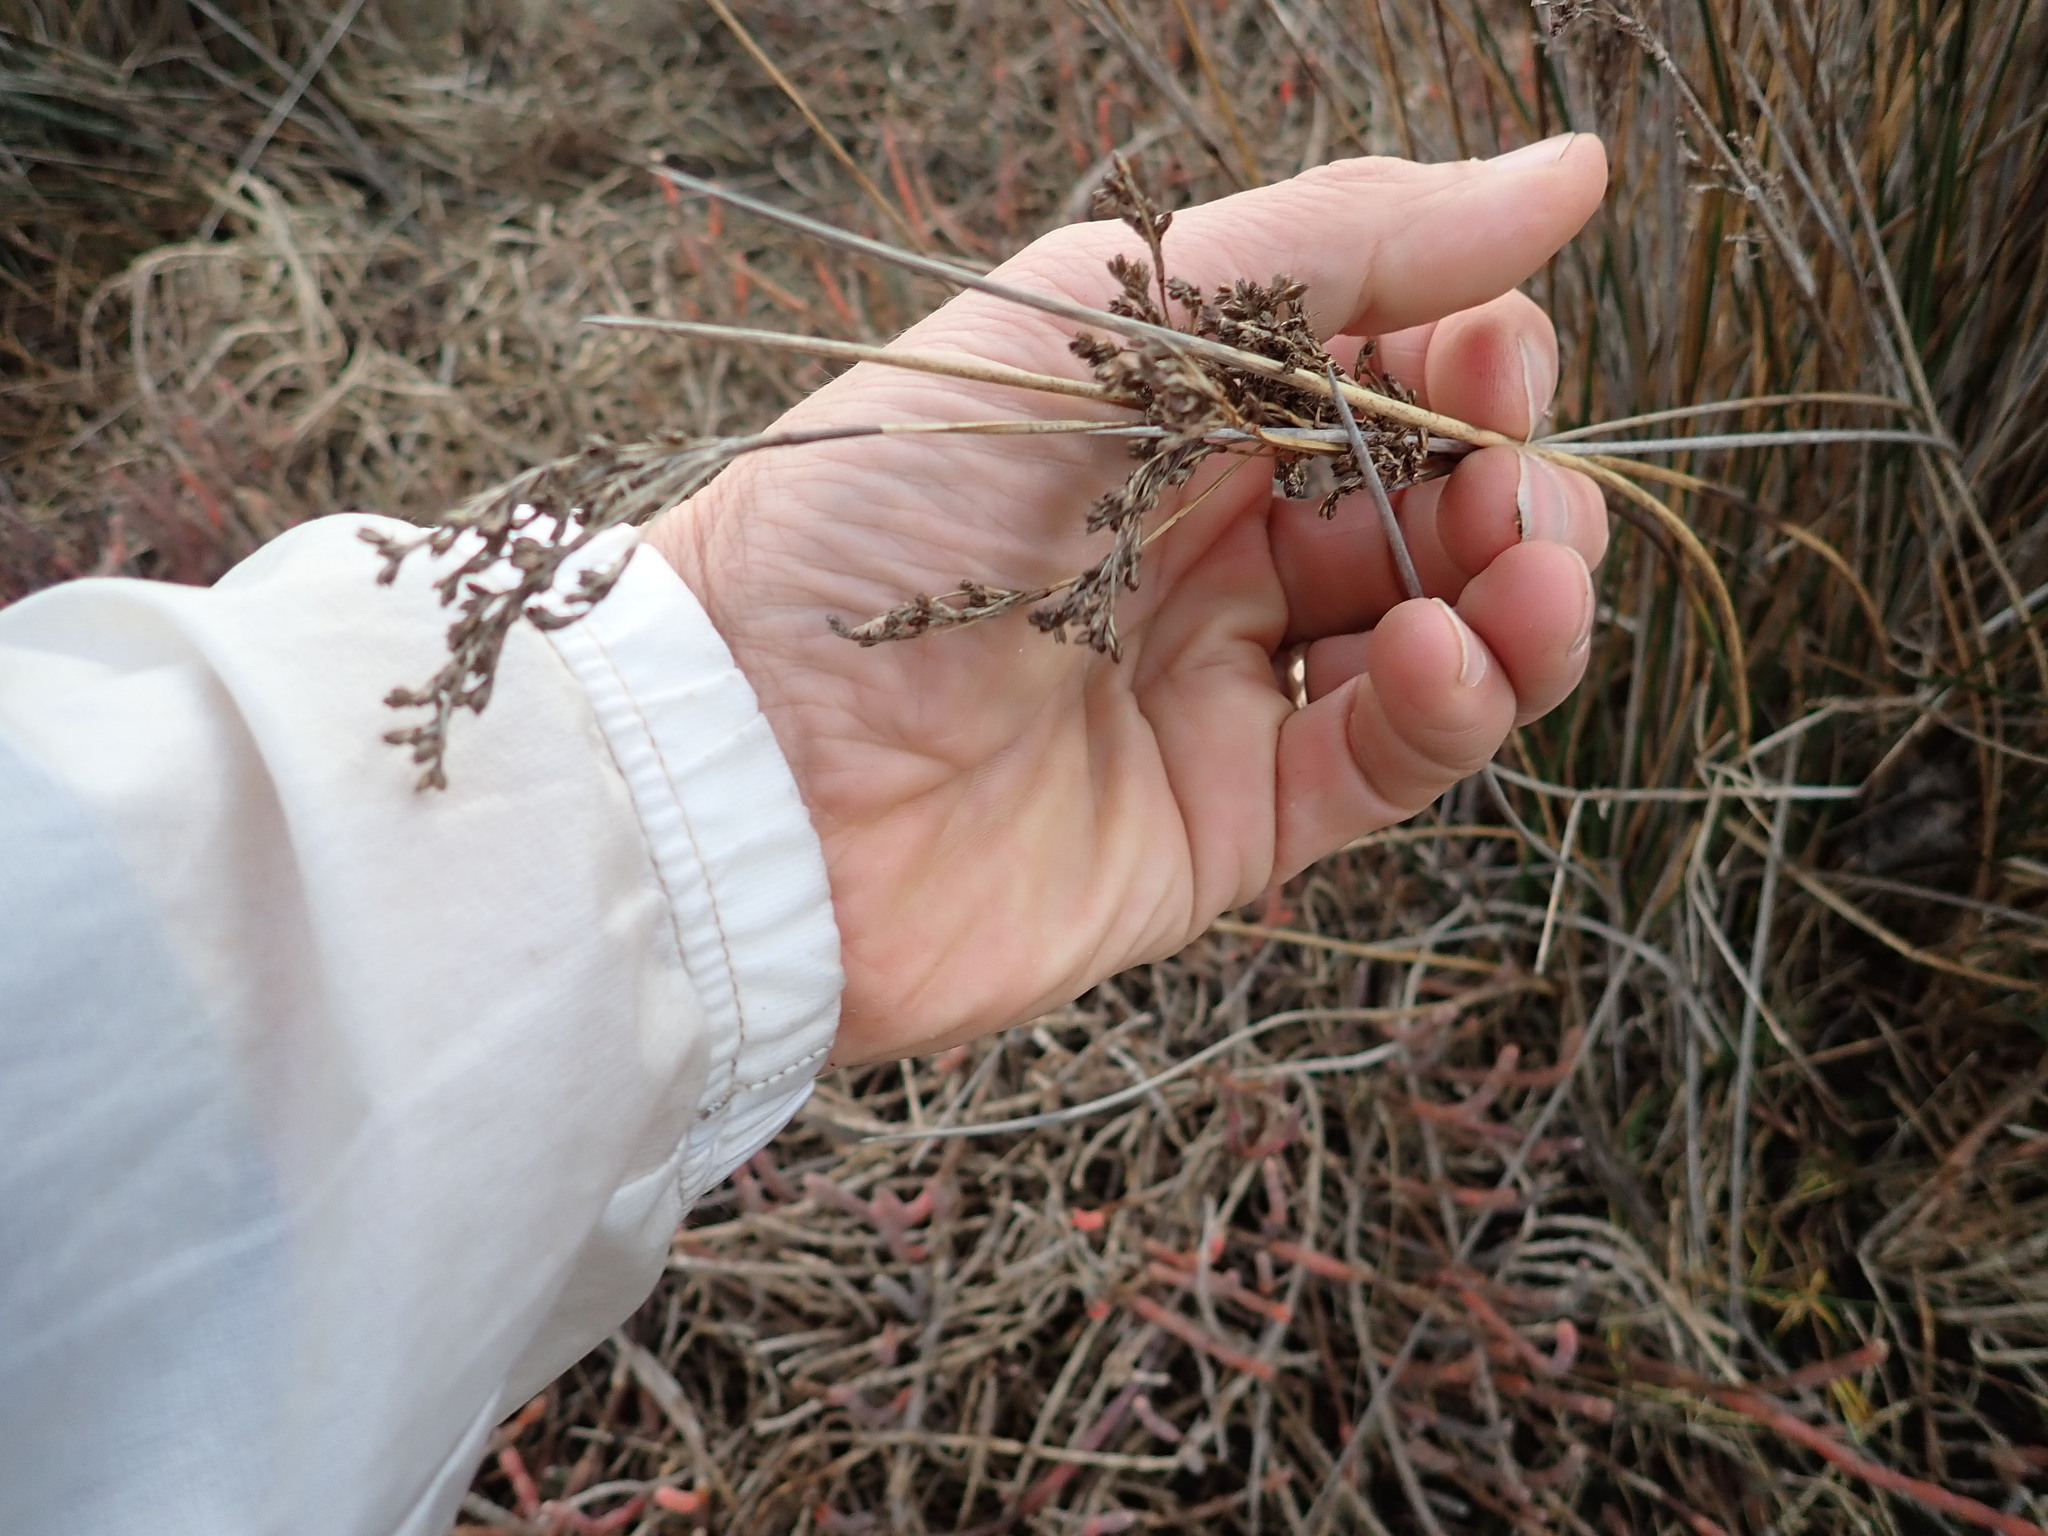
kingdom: Plantae
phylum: Tracheophyta
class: Liliopsida
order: Poales
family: Juncaceae
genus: Juncus
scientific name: Juncus kraussii
